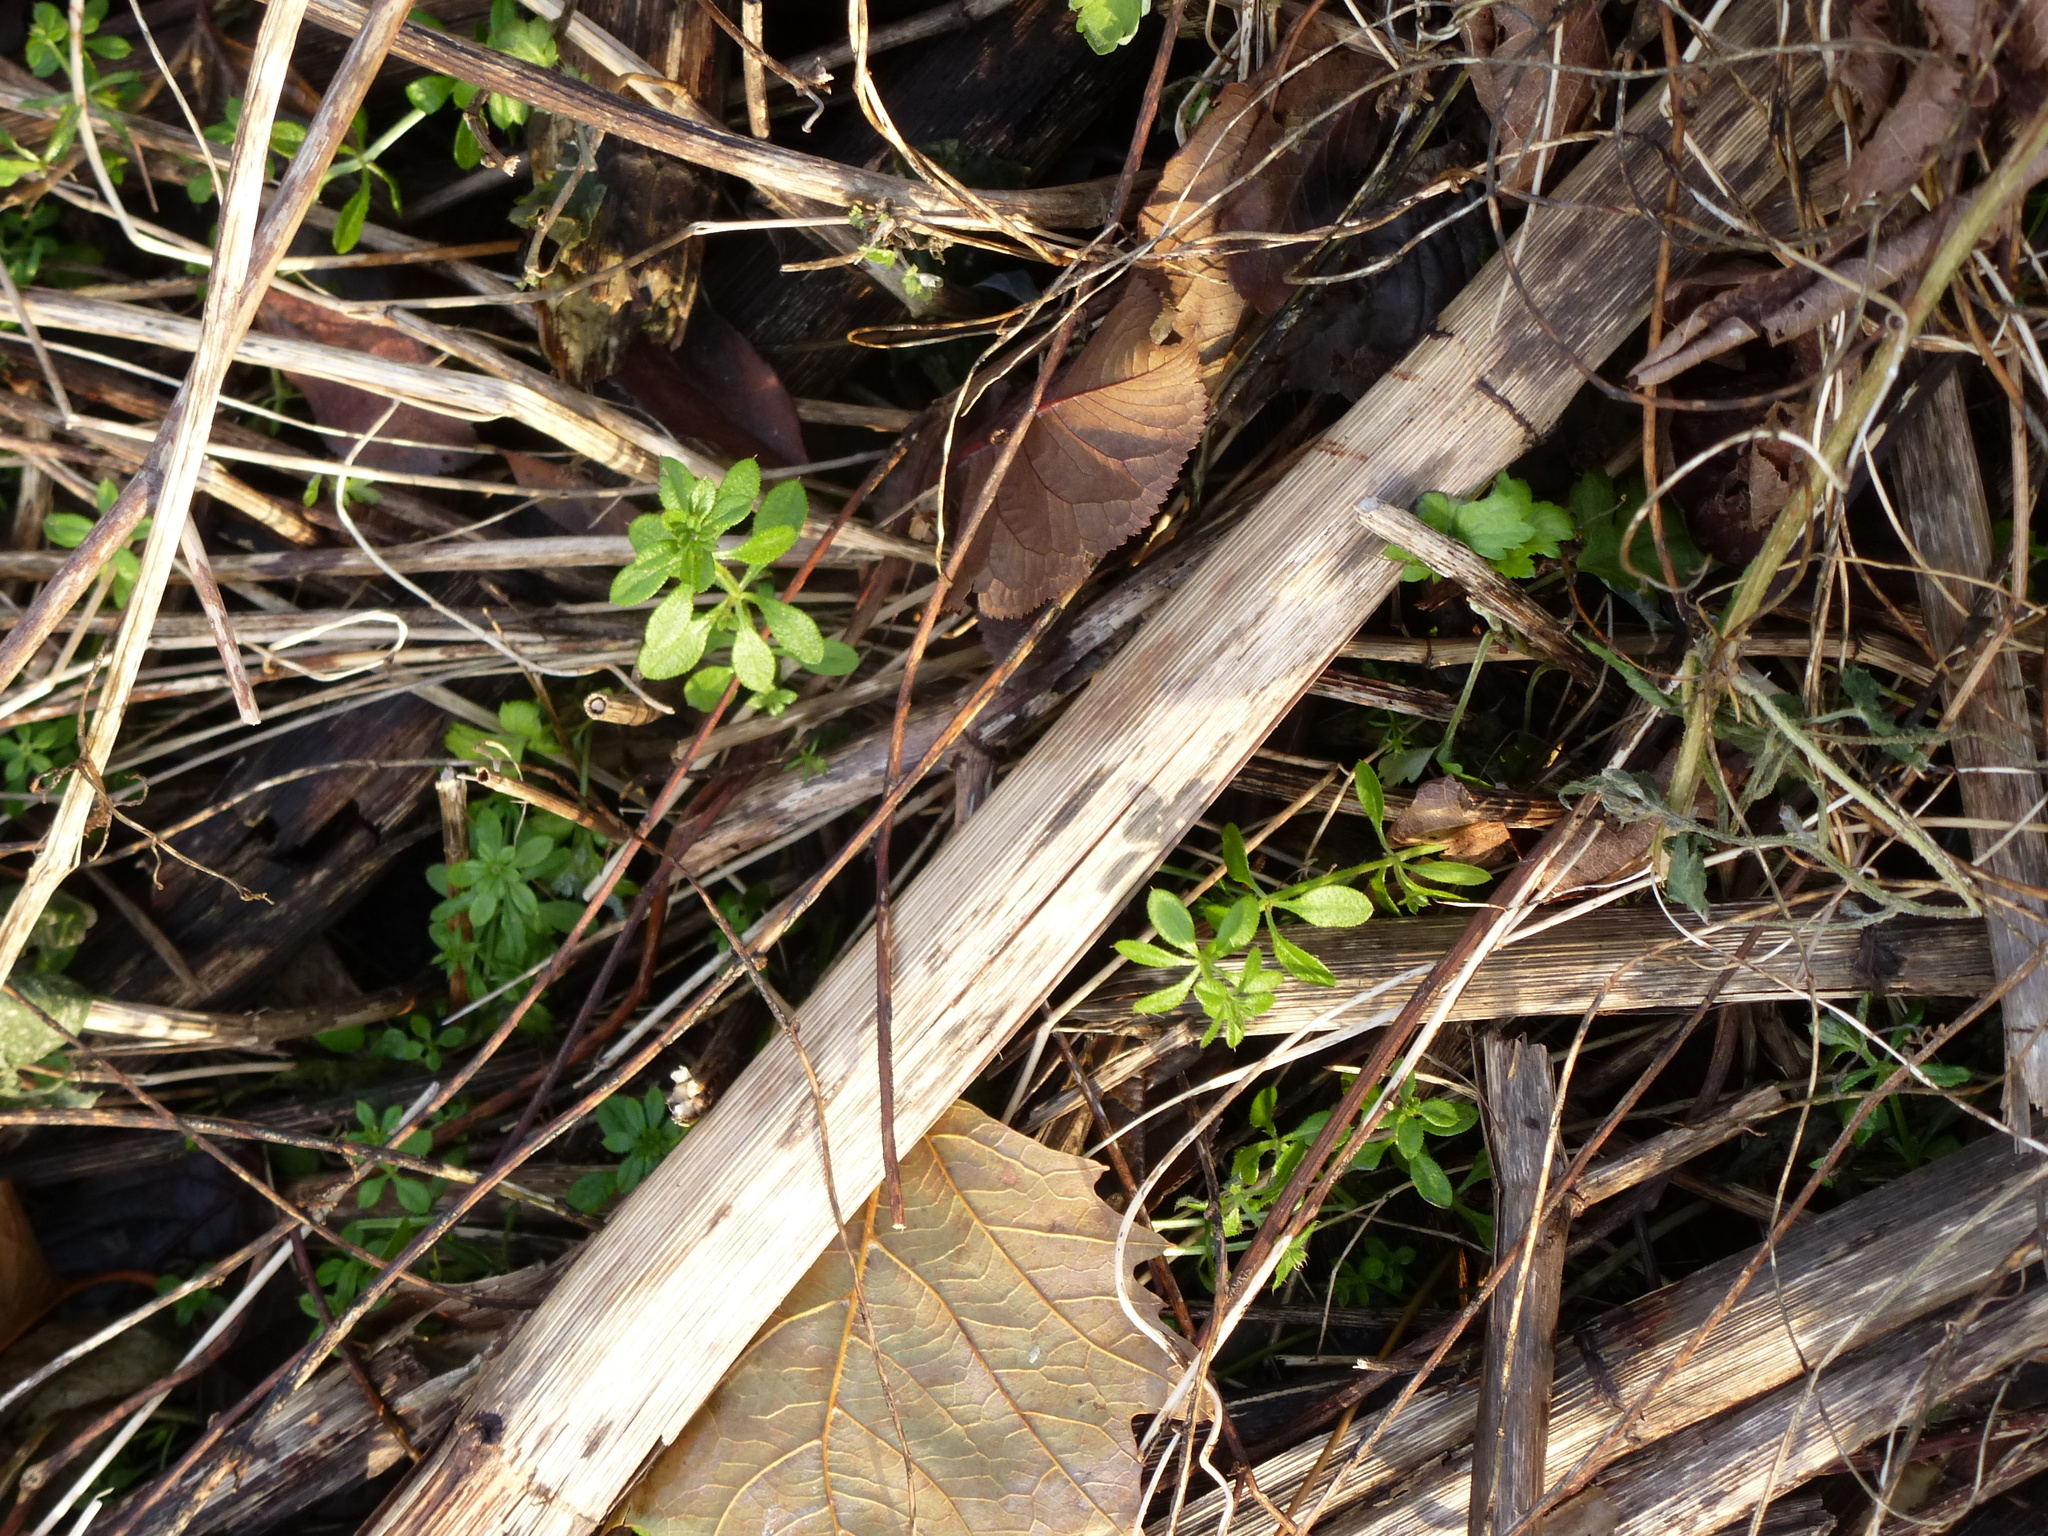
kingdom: Plantae
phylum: Tracheophyta
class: Magnoliopsida
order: Gentianales
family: Rubiaceae
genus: Galium
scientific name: Galium aparine
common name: Cleavers
